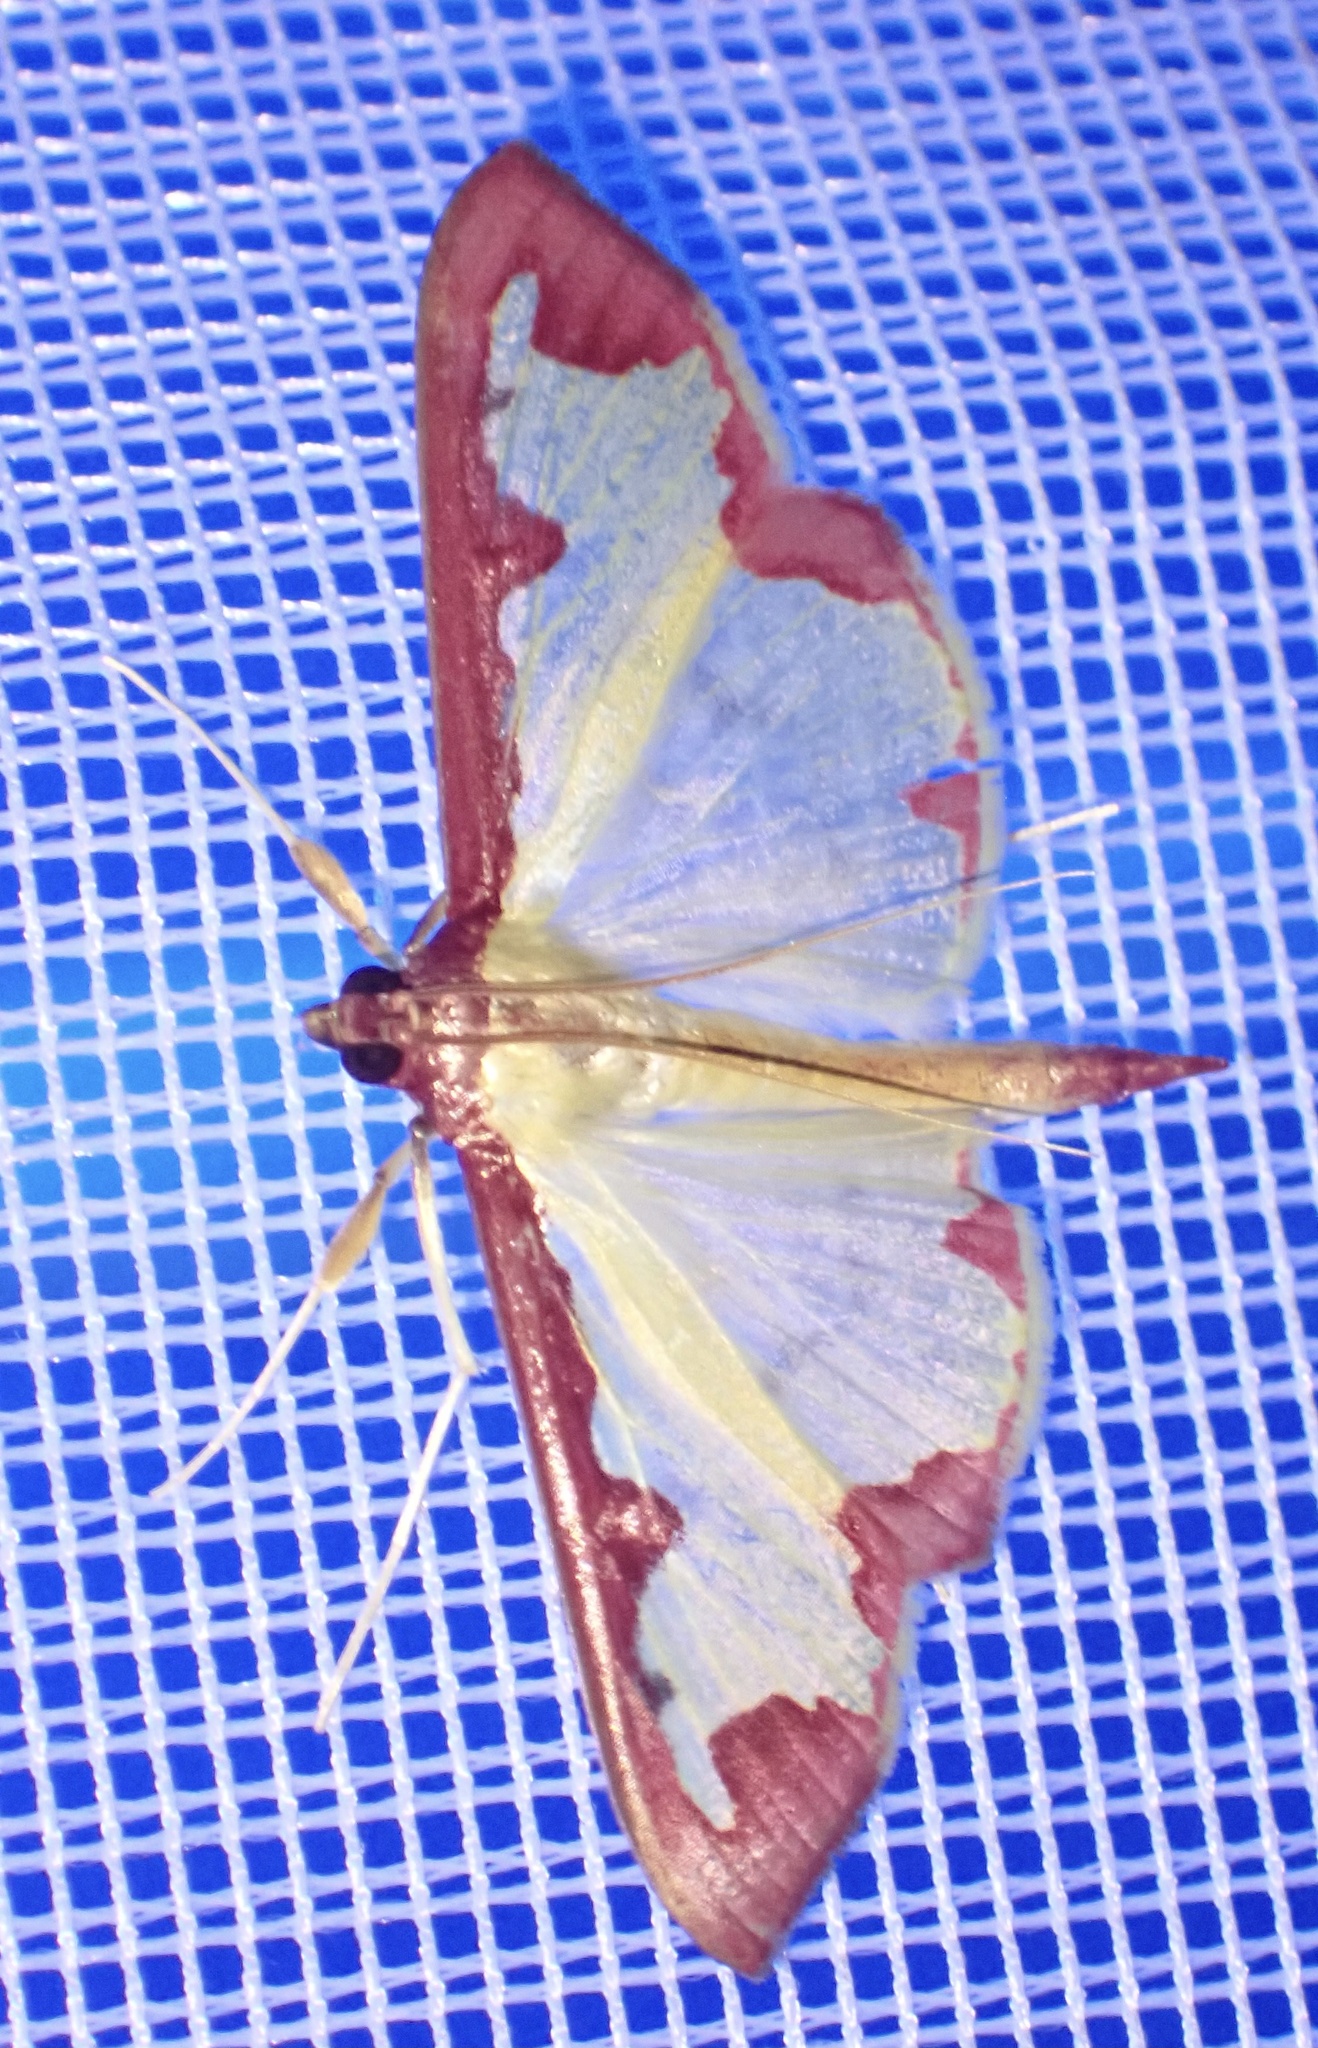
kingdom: Animalia
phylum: Arthropoda
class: Insecta
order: Lepidoptera
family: Crambidae
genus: Cadarena
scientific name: Cadarena pudoraria
